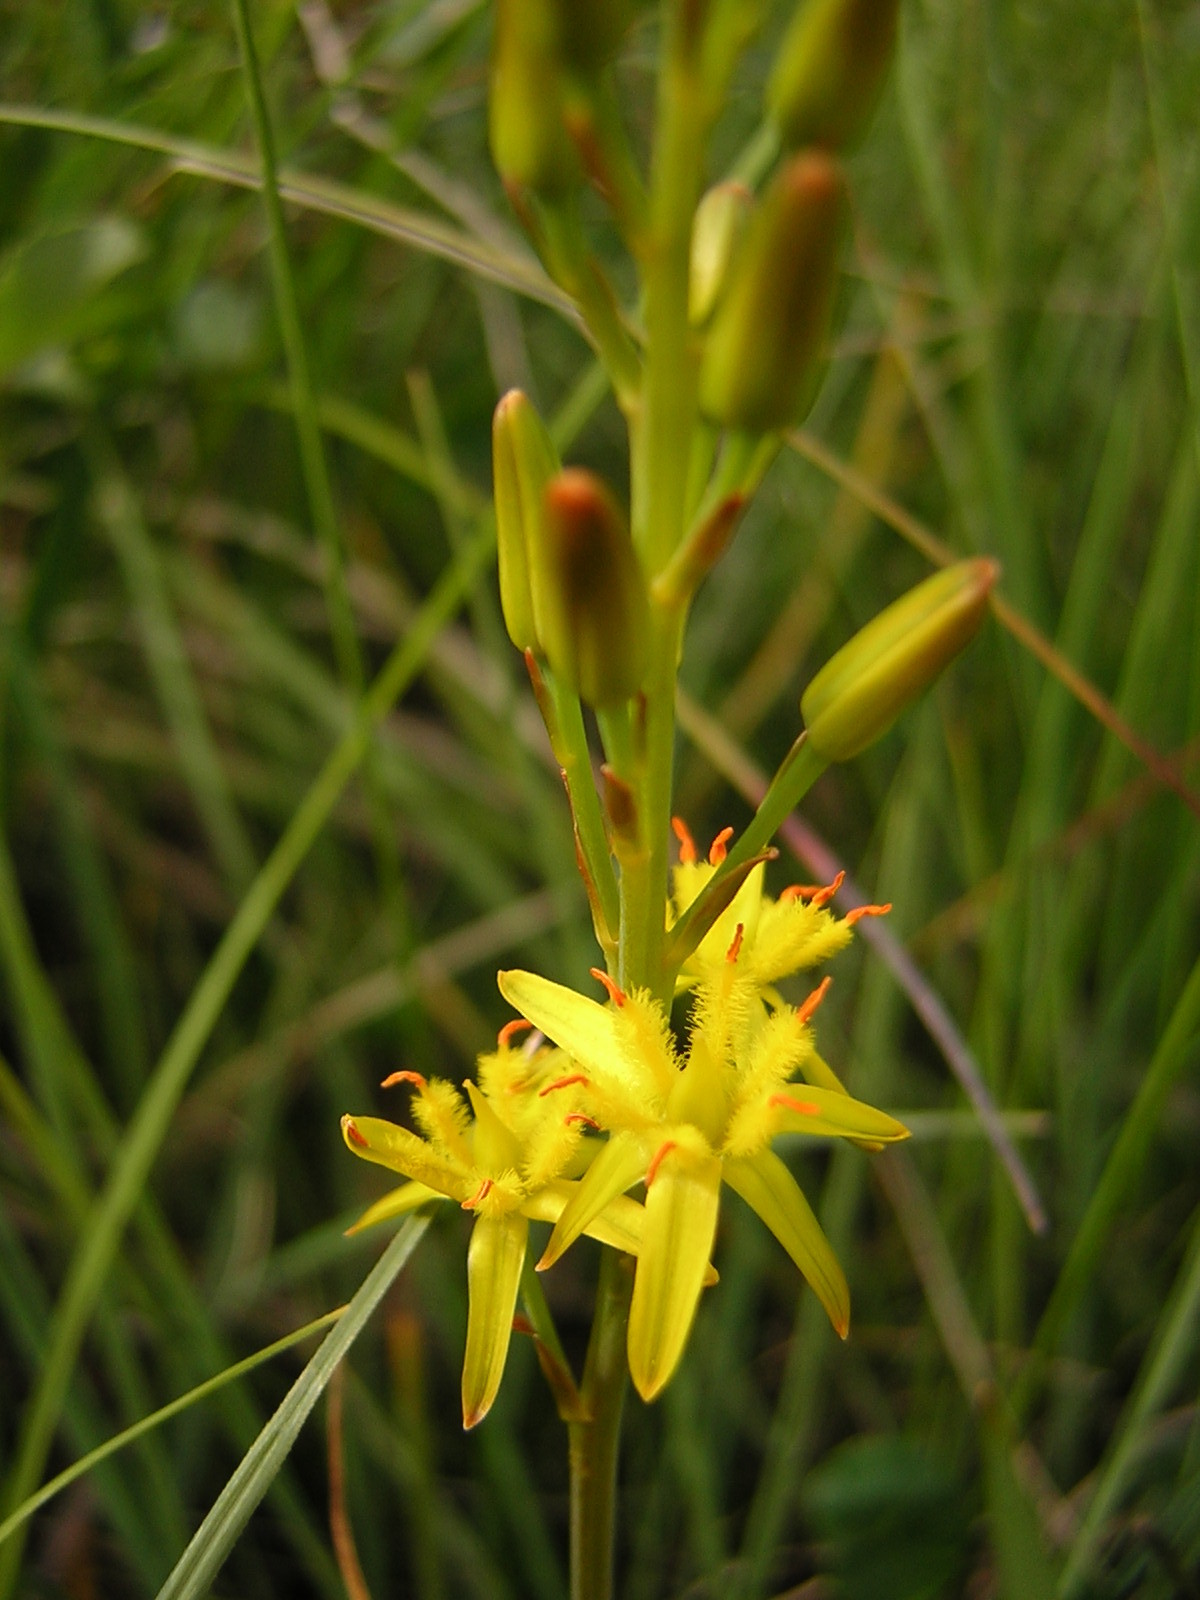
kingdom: Plantae
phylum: Tracheophyta
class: Liliopsida
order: Dioscoreales
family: Nartheciaceae
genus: Narthecium
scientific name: Narthecium ossifragum
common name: Bog asphodel
